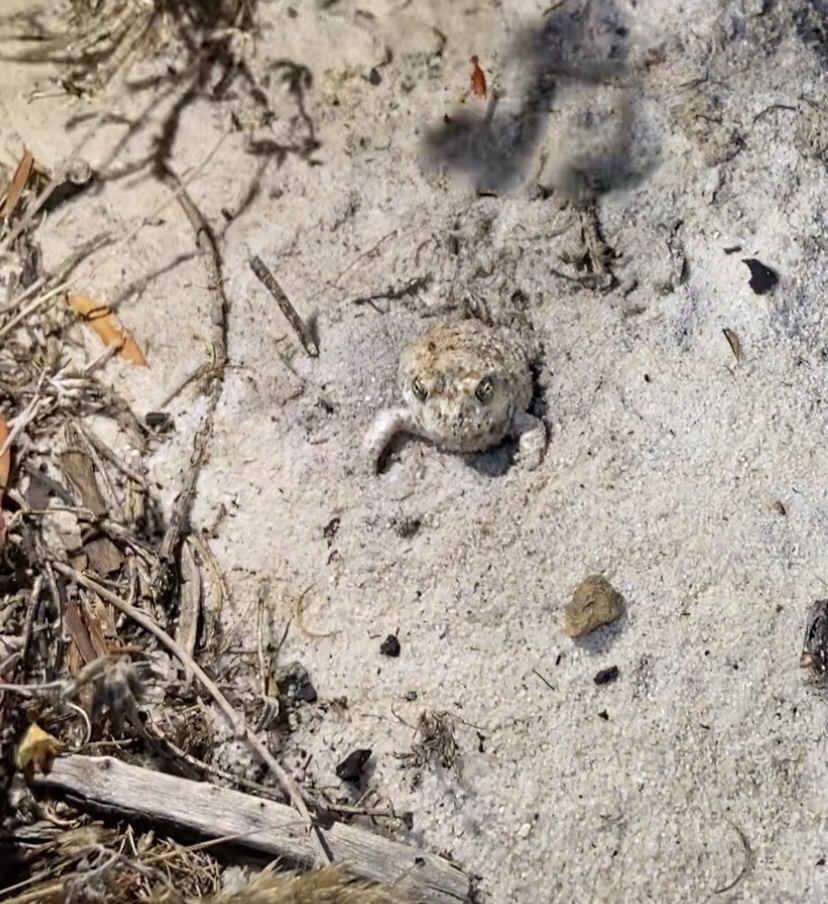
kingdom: Animalia
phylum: Chordata
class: Amphibia
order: Anura
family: Pyxicephalidae
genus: Tomopterna
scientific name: Tomopterna delalandii
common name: Delalande's burrowing bullfrog
